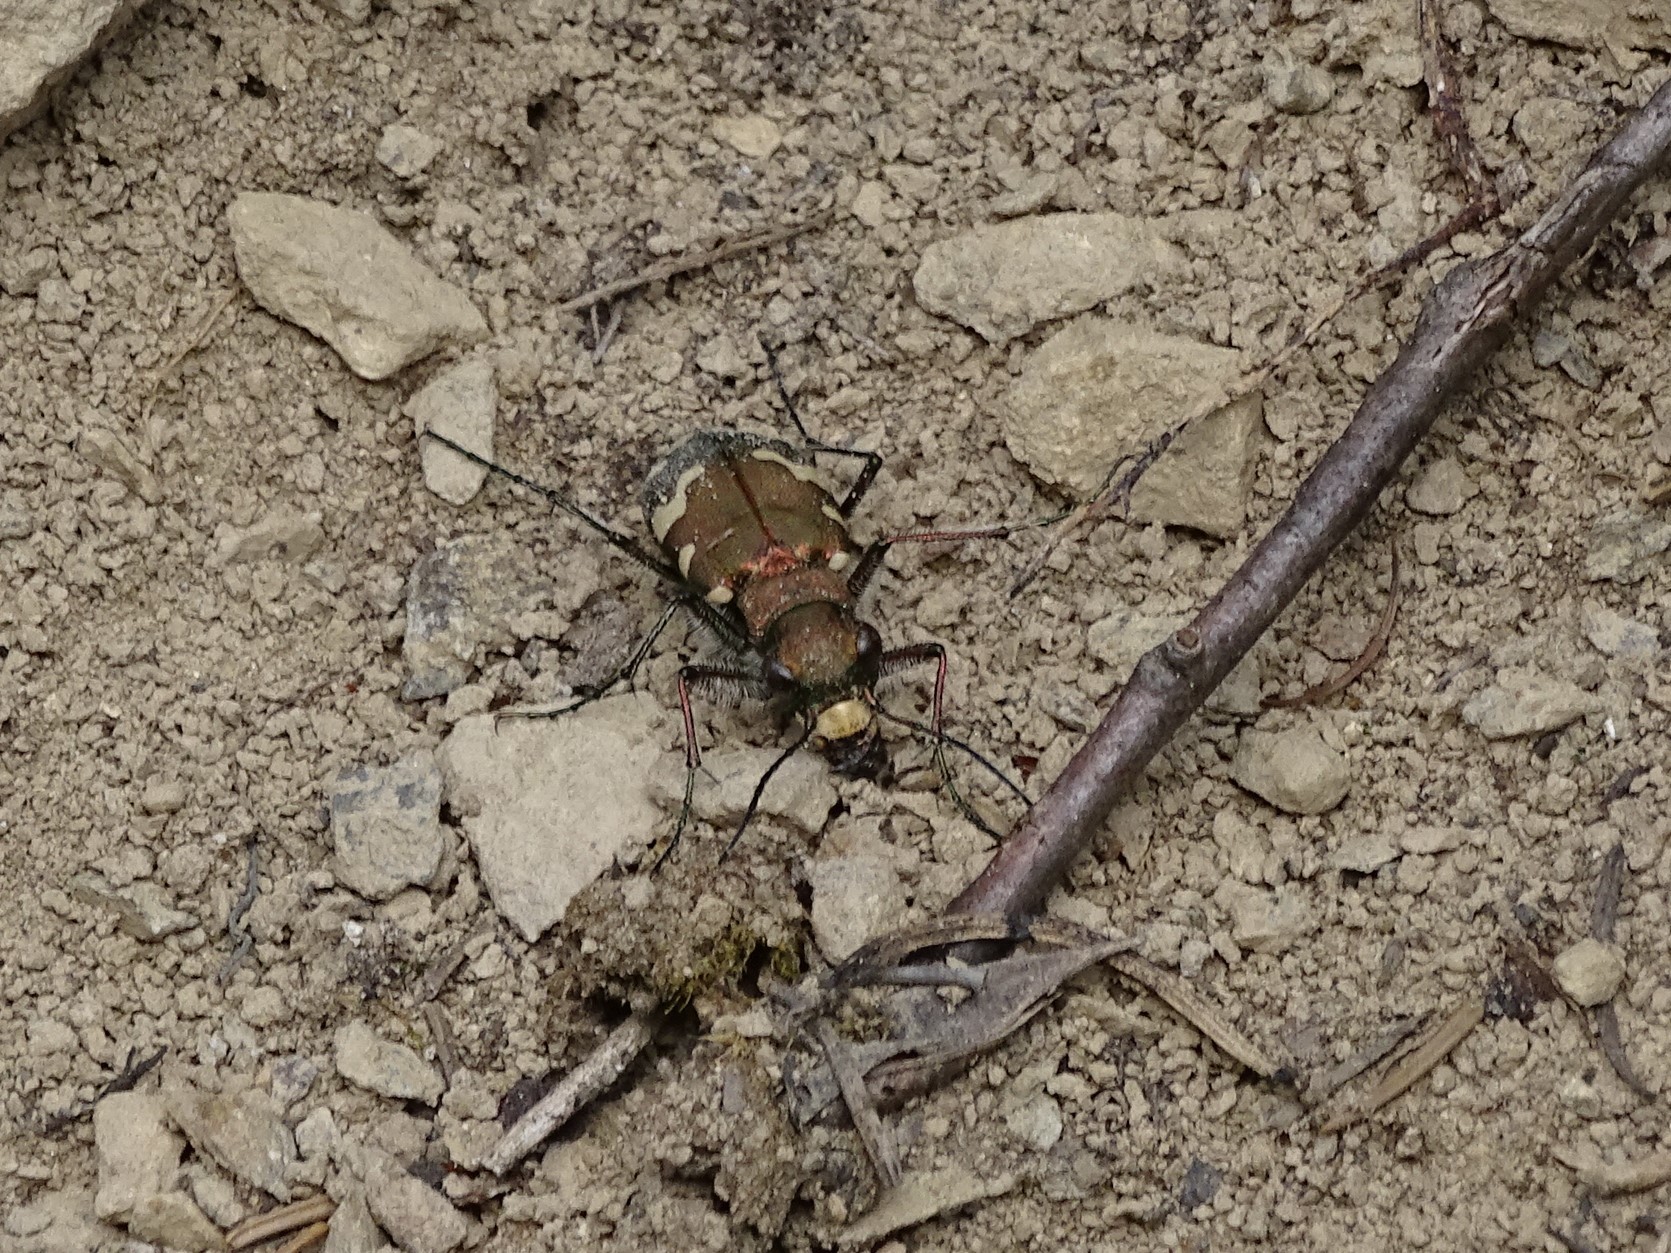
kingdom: Animalia
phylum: Arthropoda
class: Insecta
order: Coleoptera
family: Carabidae
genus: Cicindela
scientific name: Cicindela sylvicola
